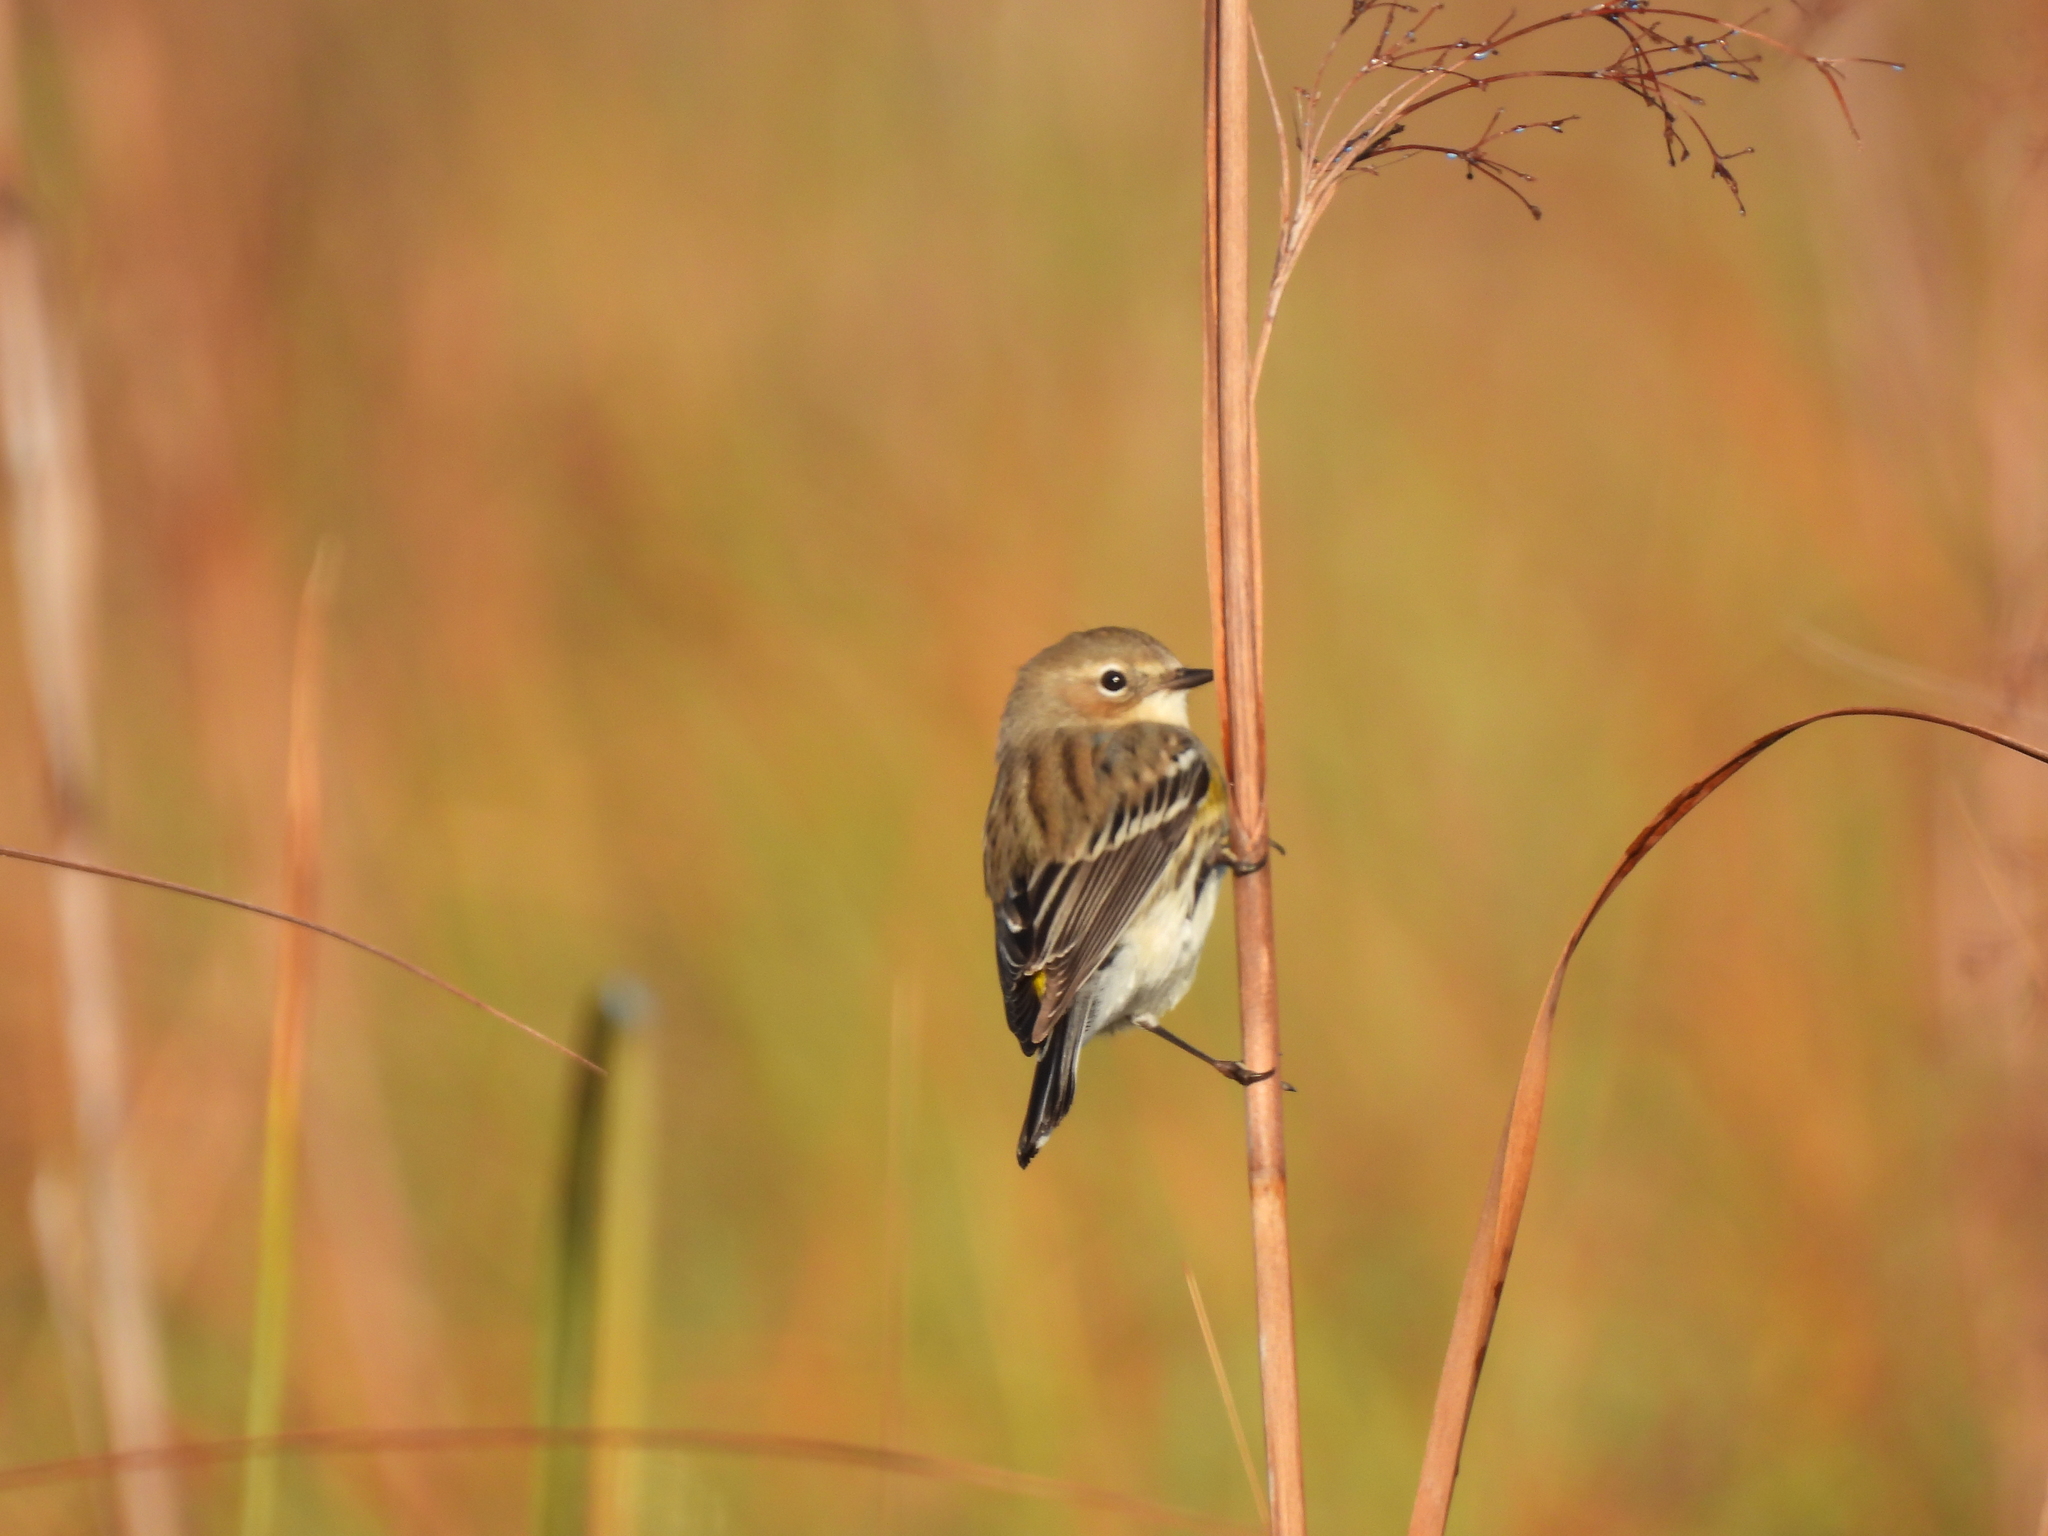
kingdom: Animalia
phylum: Chordata
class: Aves
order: Passeriformes
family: Parulidae
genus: Setophaga
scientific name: Setophaga coronata
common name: Myrtle warbler
